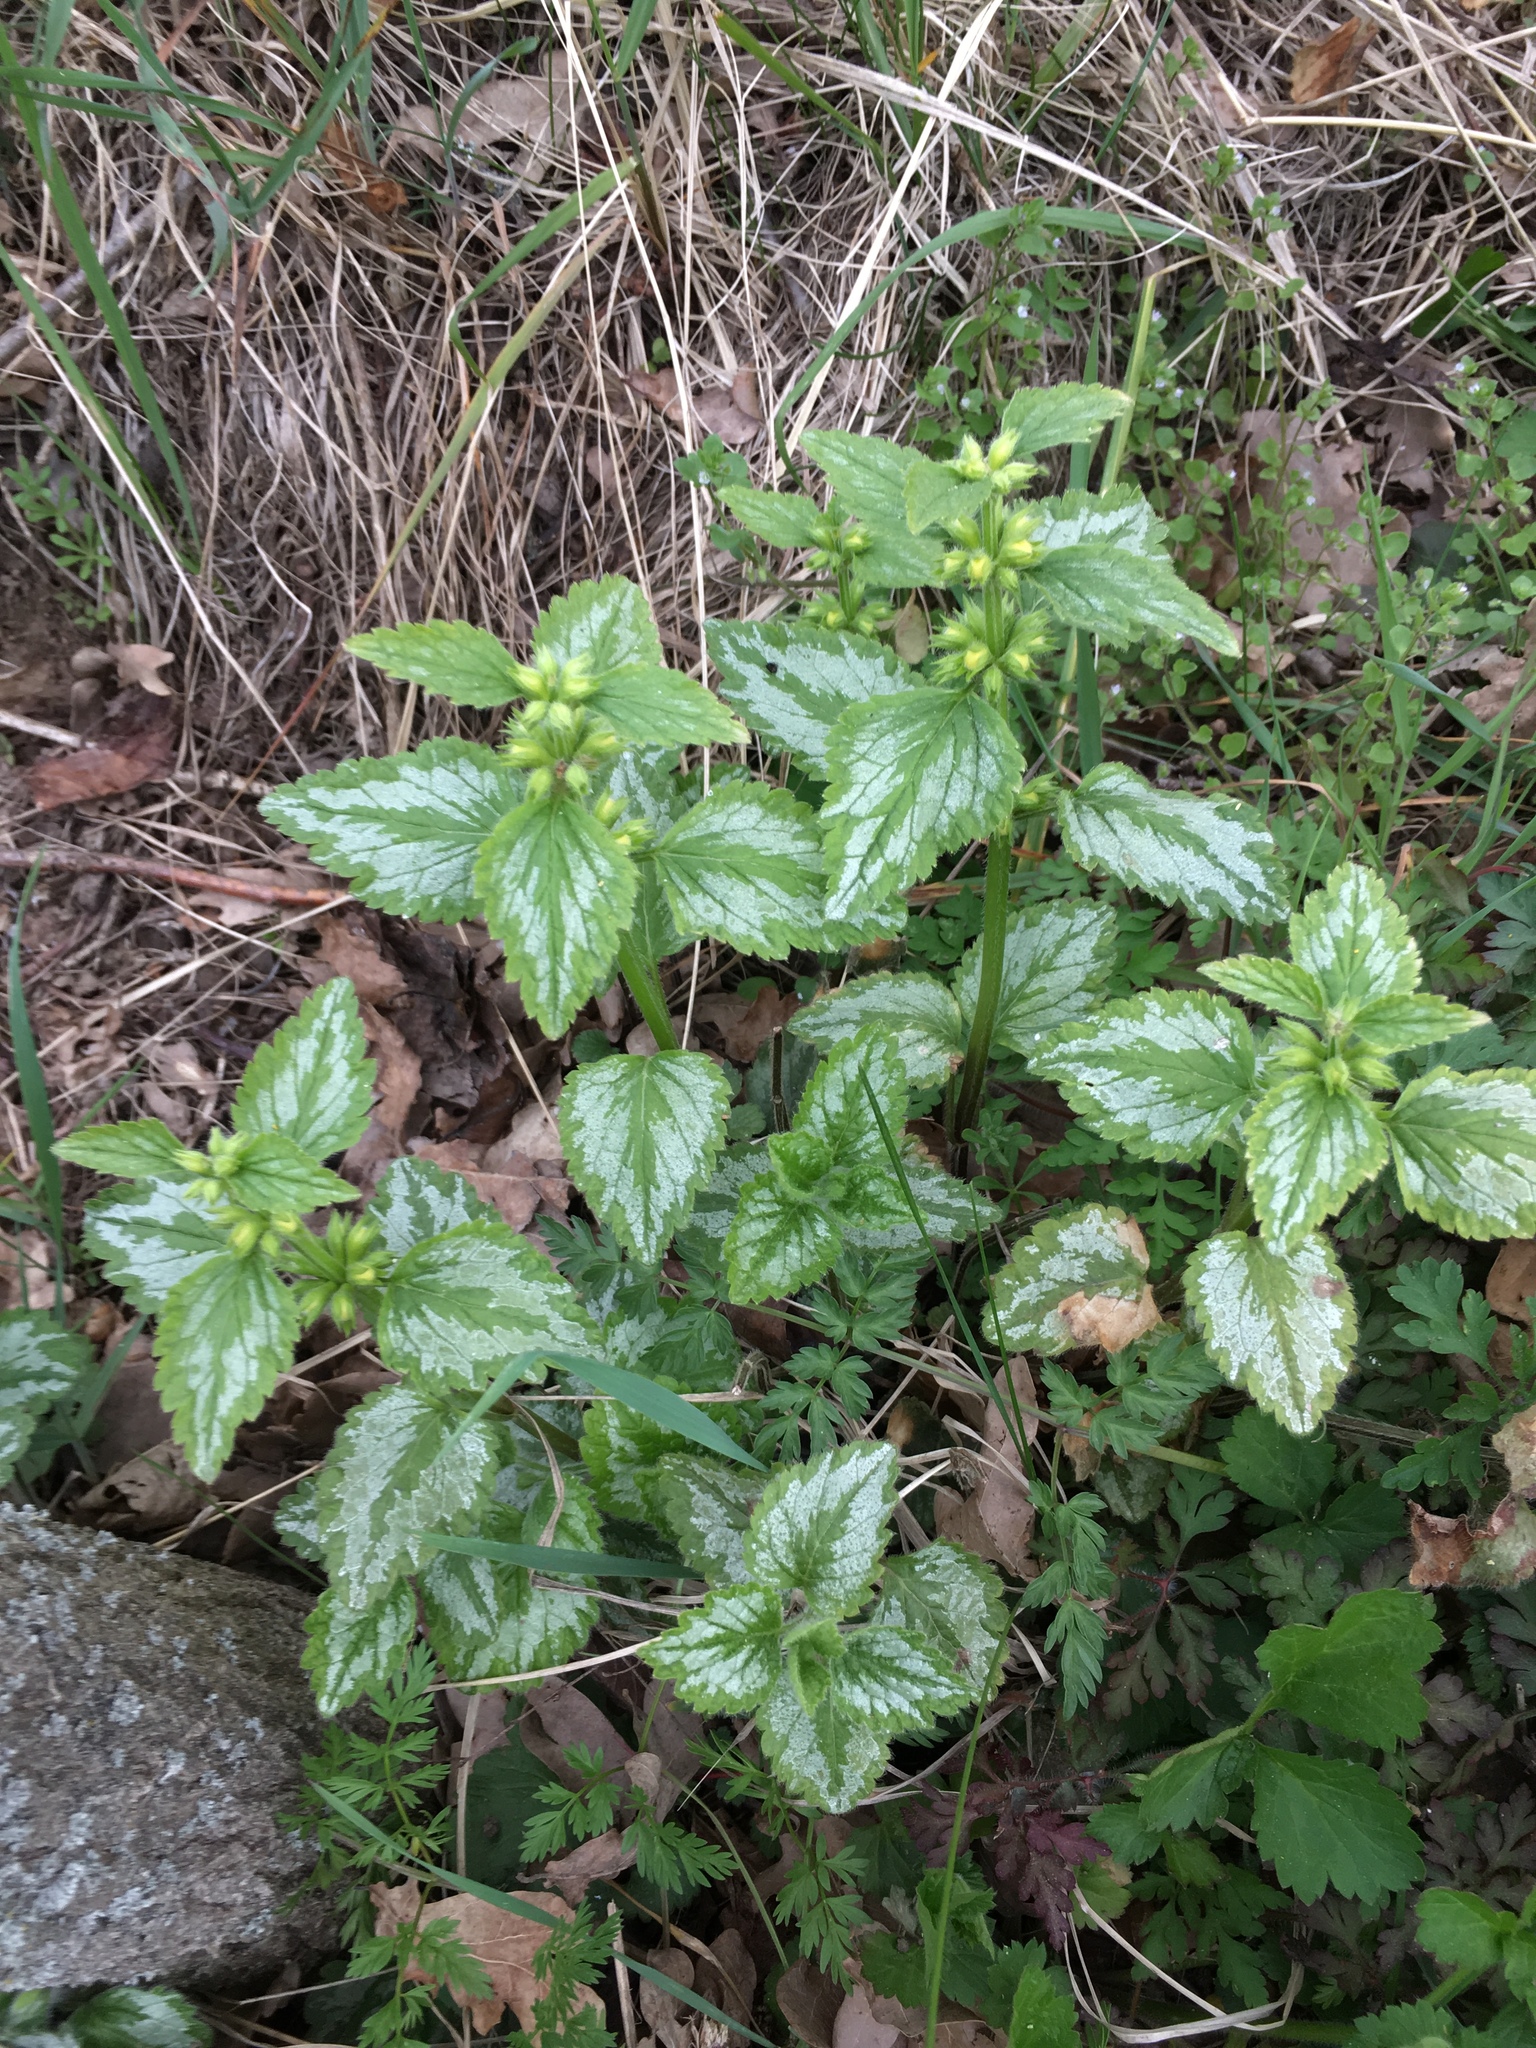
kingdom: Plantae
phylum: Tracheophyta
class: Magnoliopsida
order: Lamiales
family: Lamiaceae
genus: Lamium
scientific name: Lamium galeobdolon
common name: Yellow archangel
